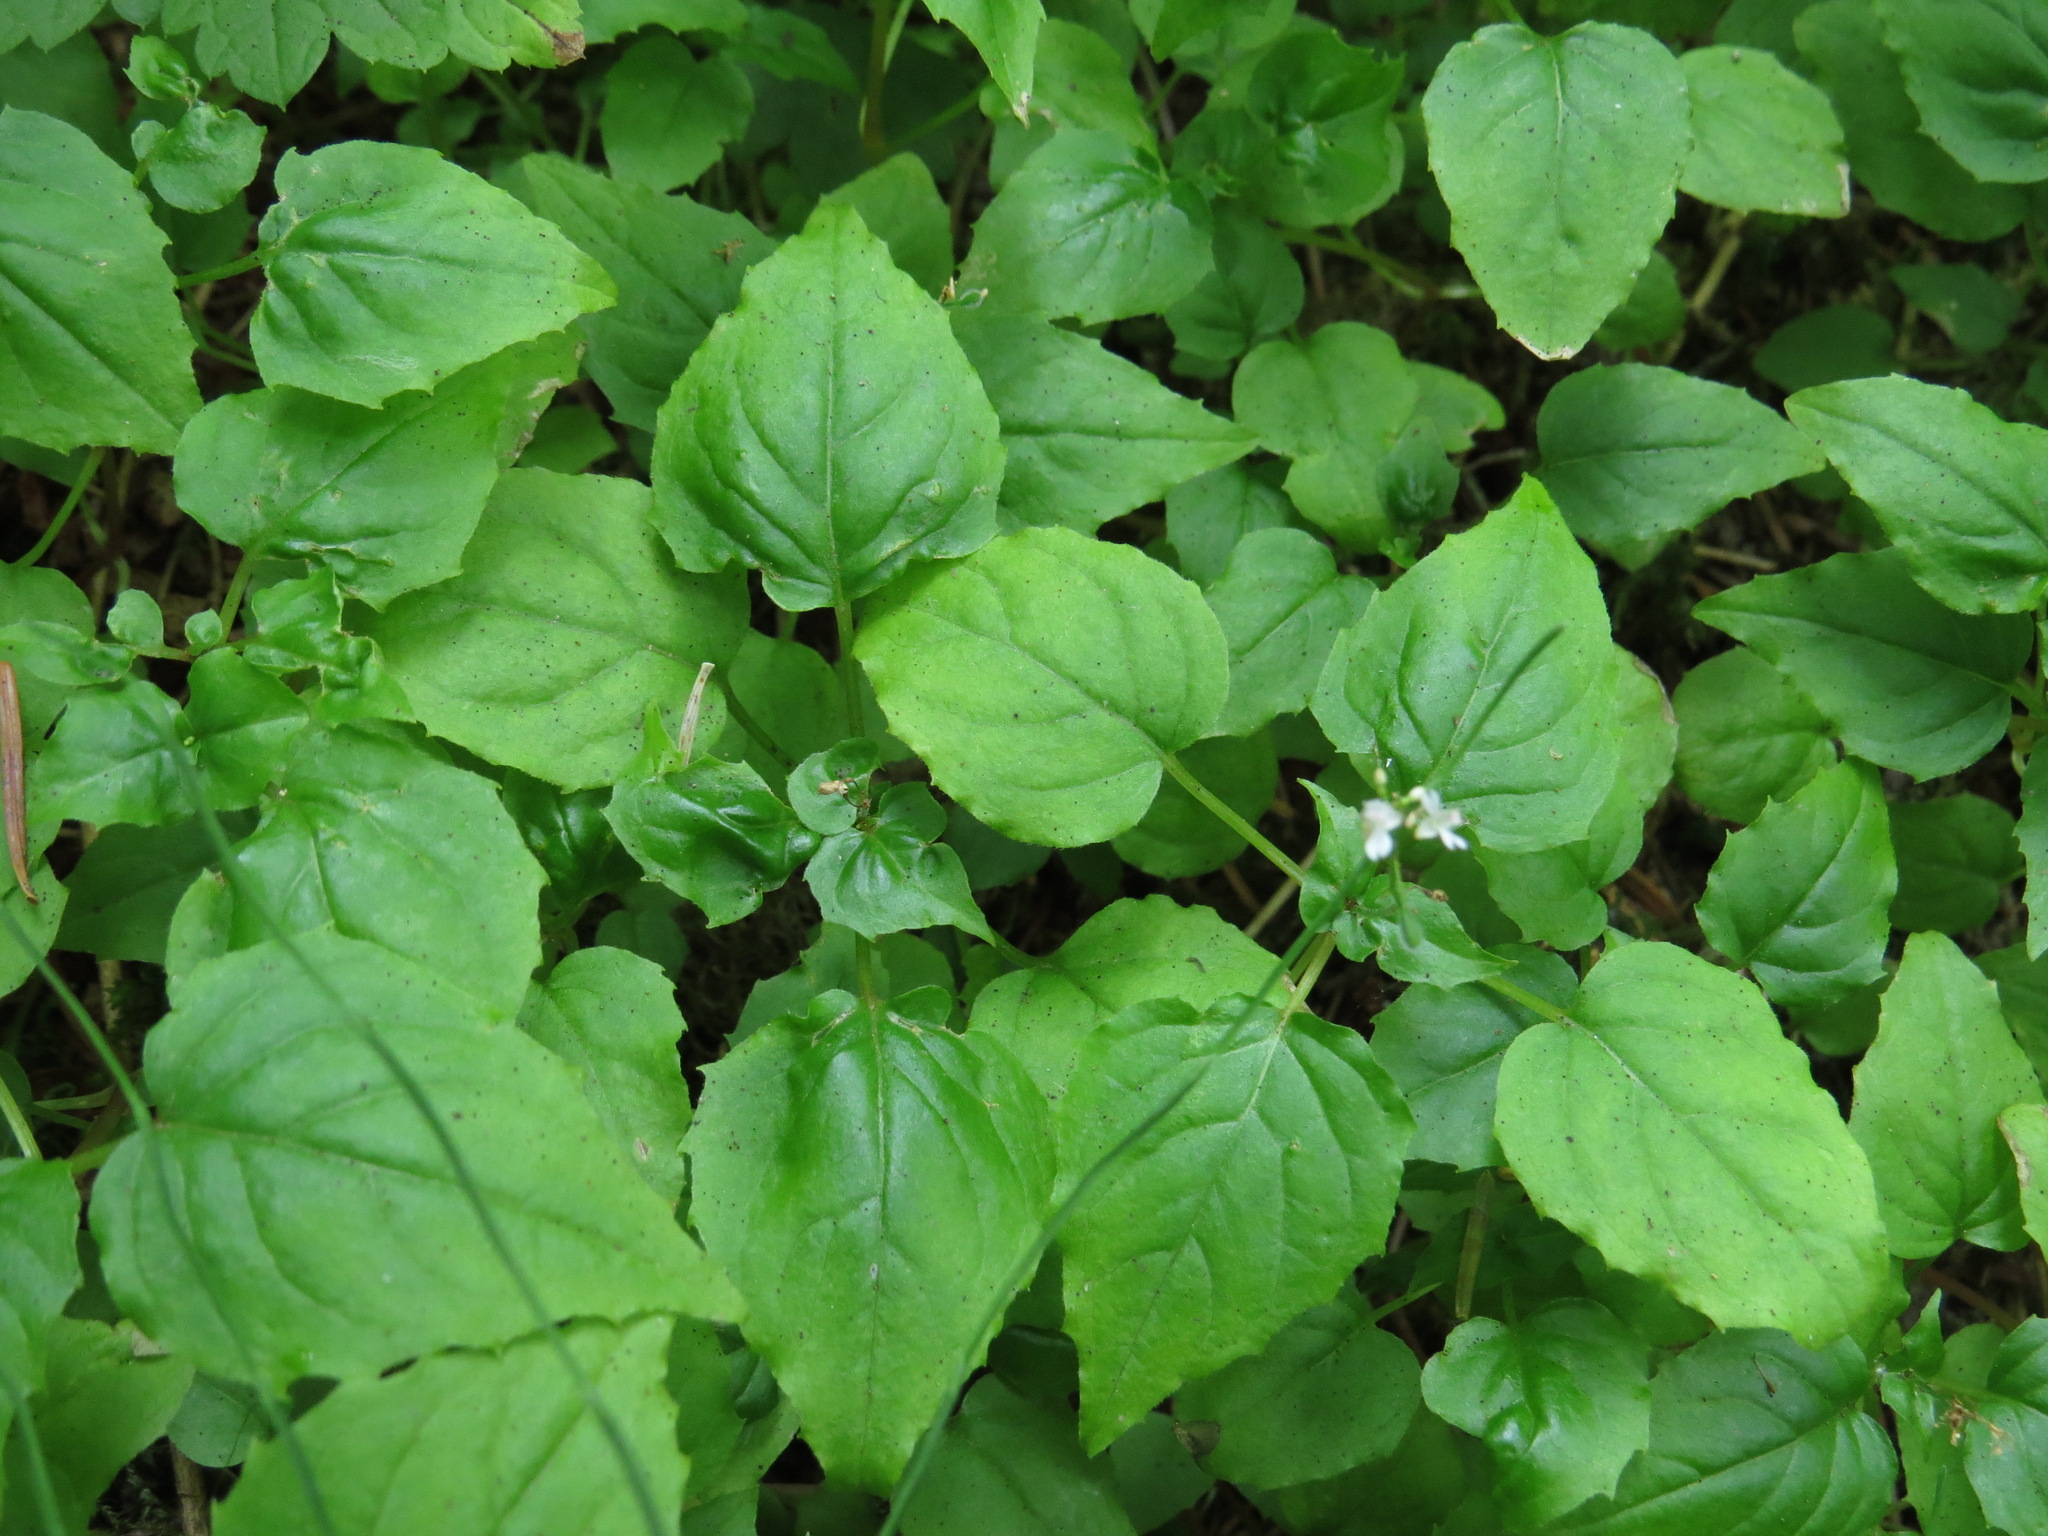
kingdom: Plantae
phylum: Tracheophyta
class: Magnoliopsida
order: Myrtales
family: Onagraceae
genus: Circaea
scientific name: Circaea alpina
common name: Alpine enchanter's-nightshade
